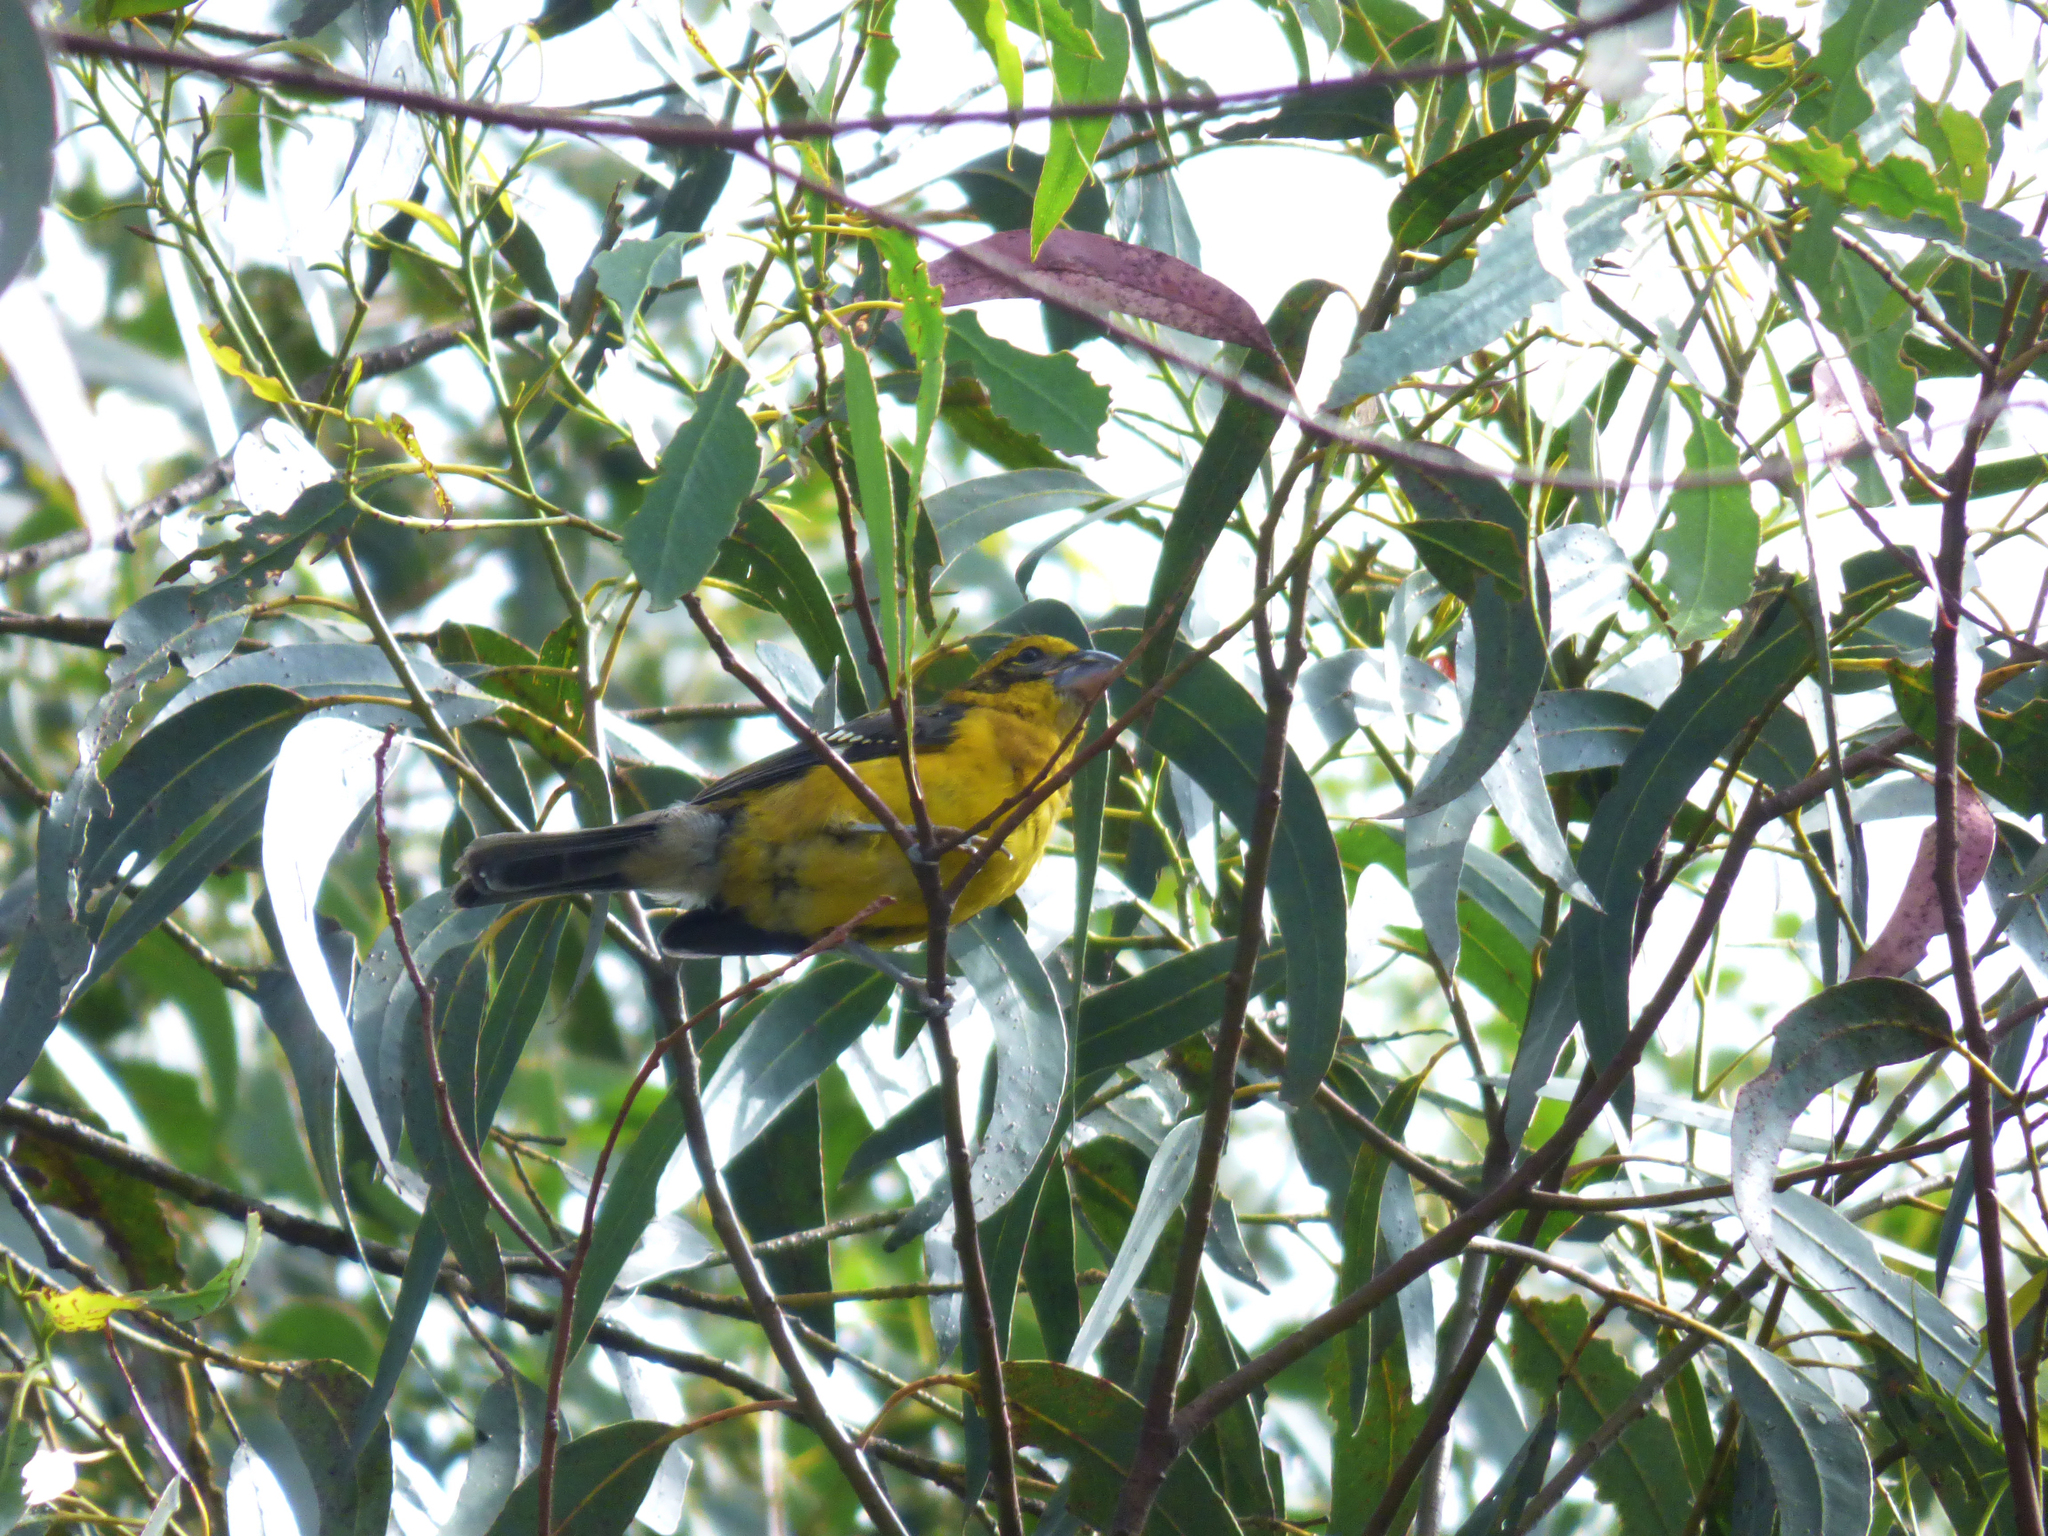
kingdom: Animalia
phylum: Chordata
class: Aves
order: Passeriformes
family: Cardinalidae
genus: Pheucticus
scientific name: Pheucticus chrysogaster
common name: Golden grosbeak
